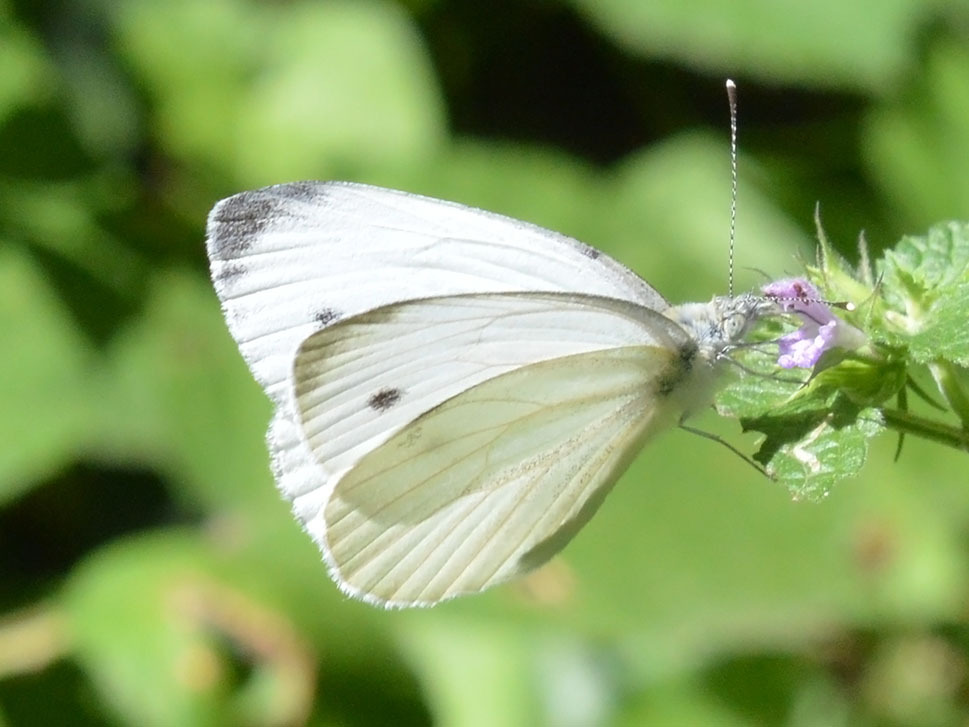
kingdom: Animalia
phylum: Arthropoda
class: Insecta
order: Lepidoptera
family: Pieridae
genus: Pieris
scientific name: Pieris napi
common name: Green-veined white
